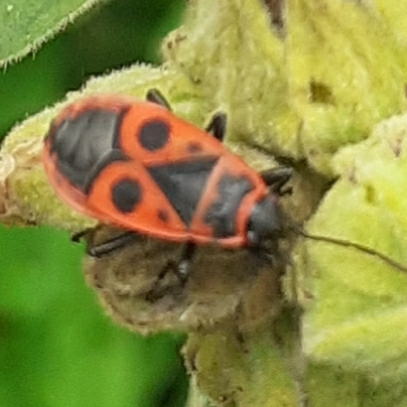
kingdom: Animalia
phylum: Arthropoda
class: Insecta
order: Hemiptera
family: Pyrrhocoridae
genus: Pyrrhocoris
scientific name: Pyrrhocoris apterus
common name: Firebug
